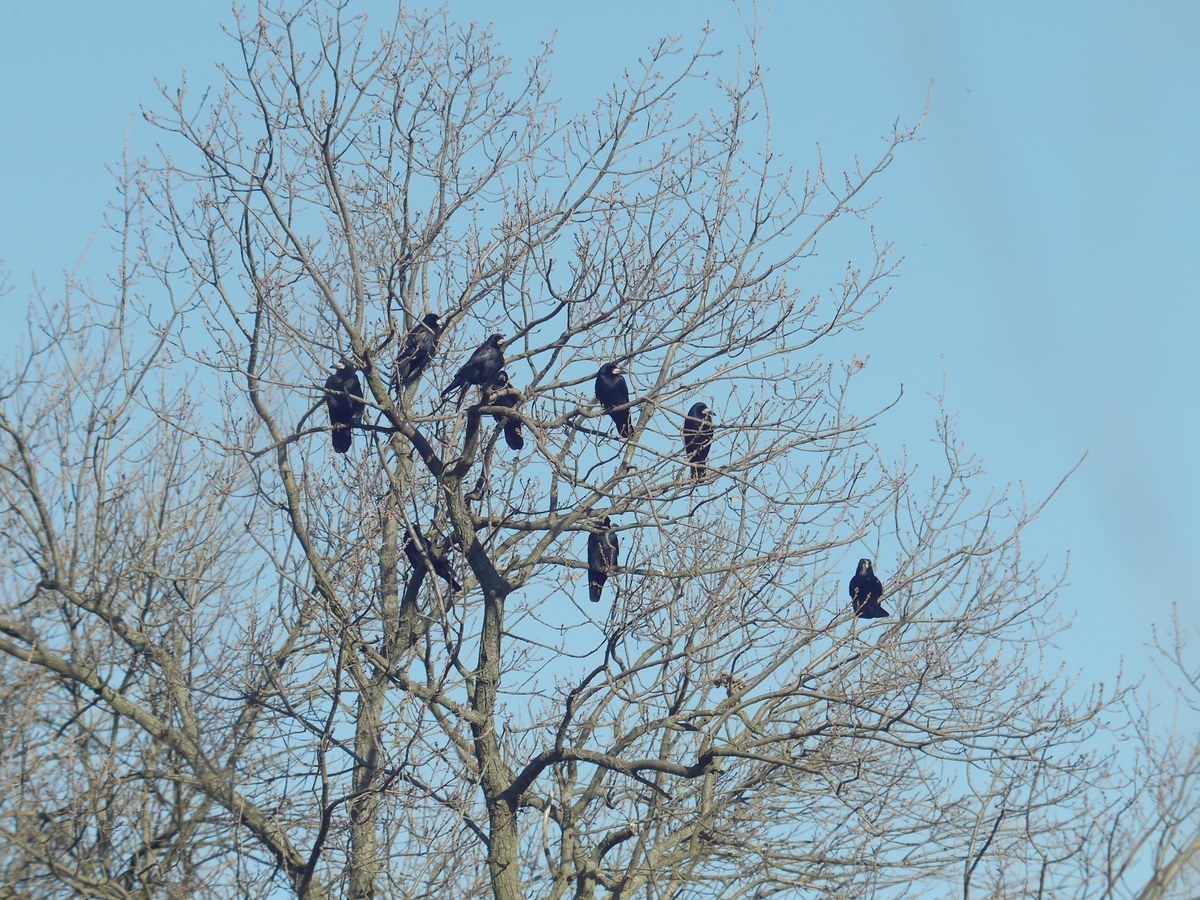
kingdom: Animalia
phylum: Chordata
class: Aves
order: Passeriformes
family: Corvidae
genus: Corvus
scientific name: Corvus frugilegus
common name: Rook
